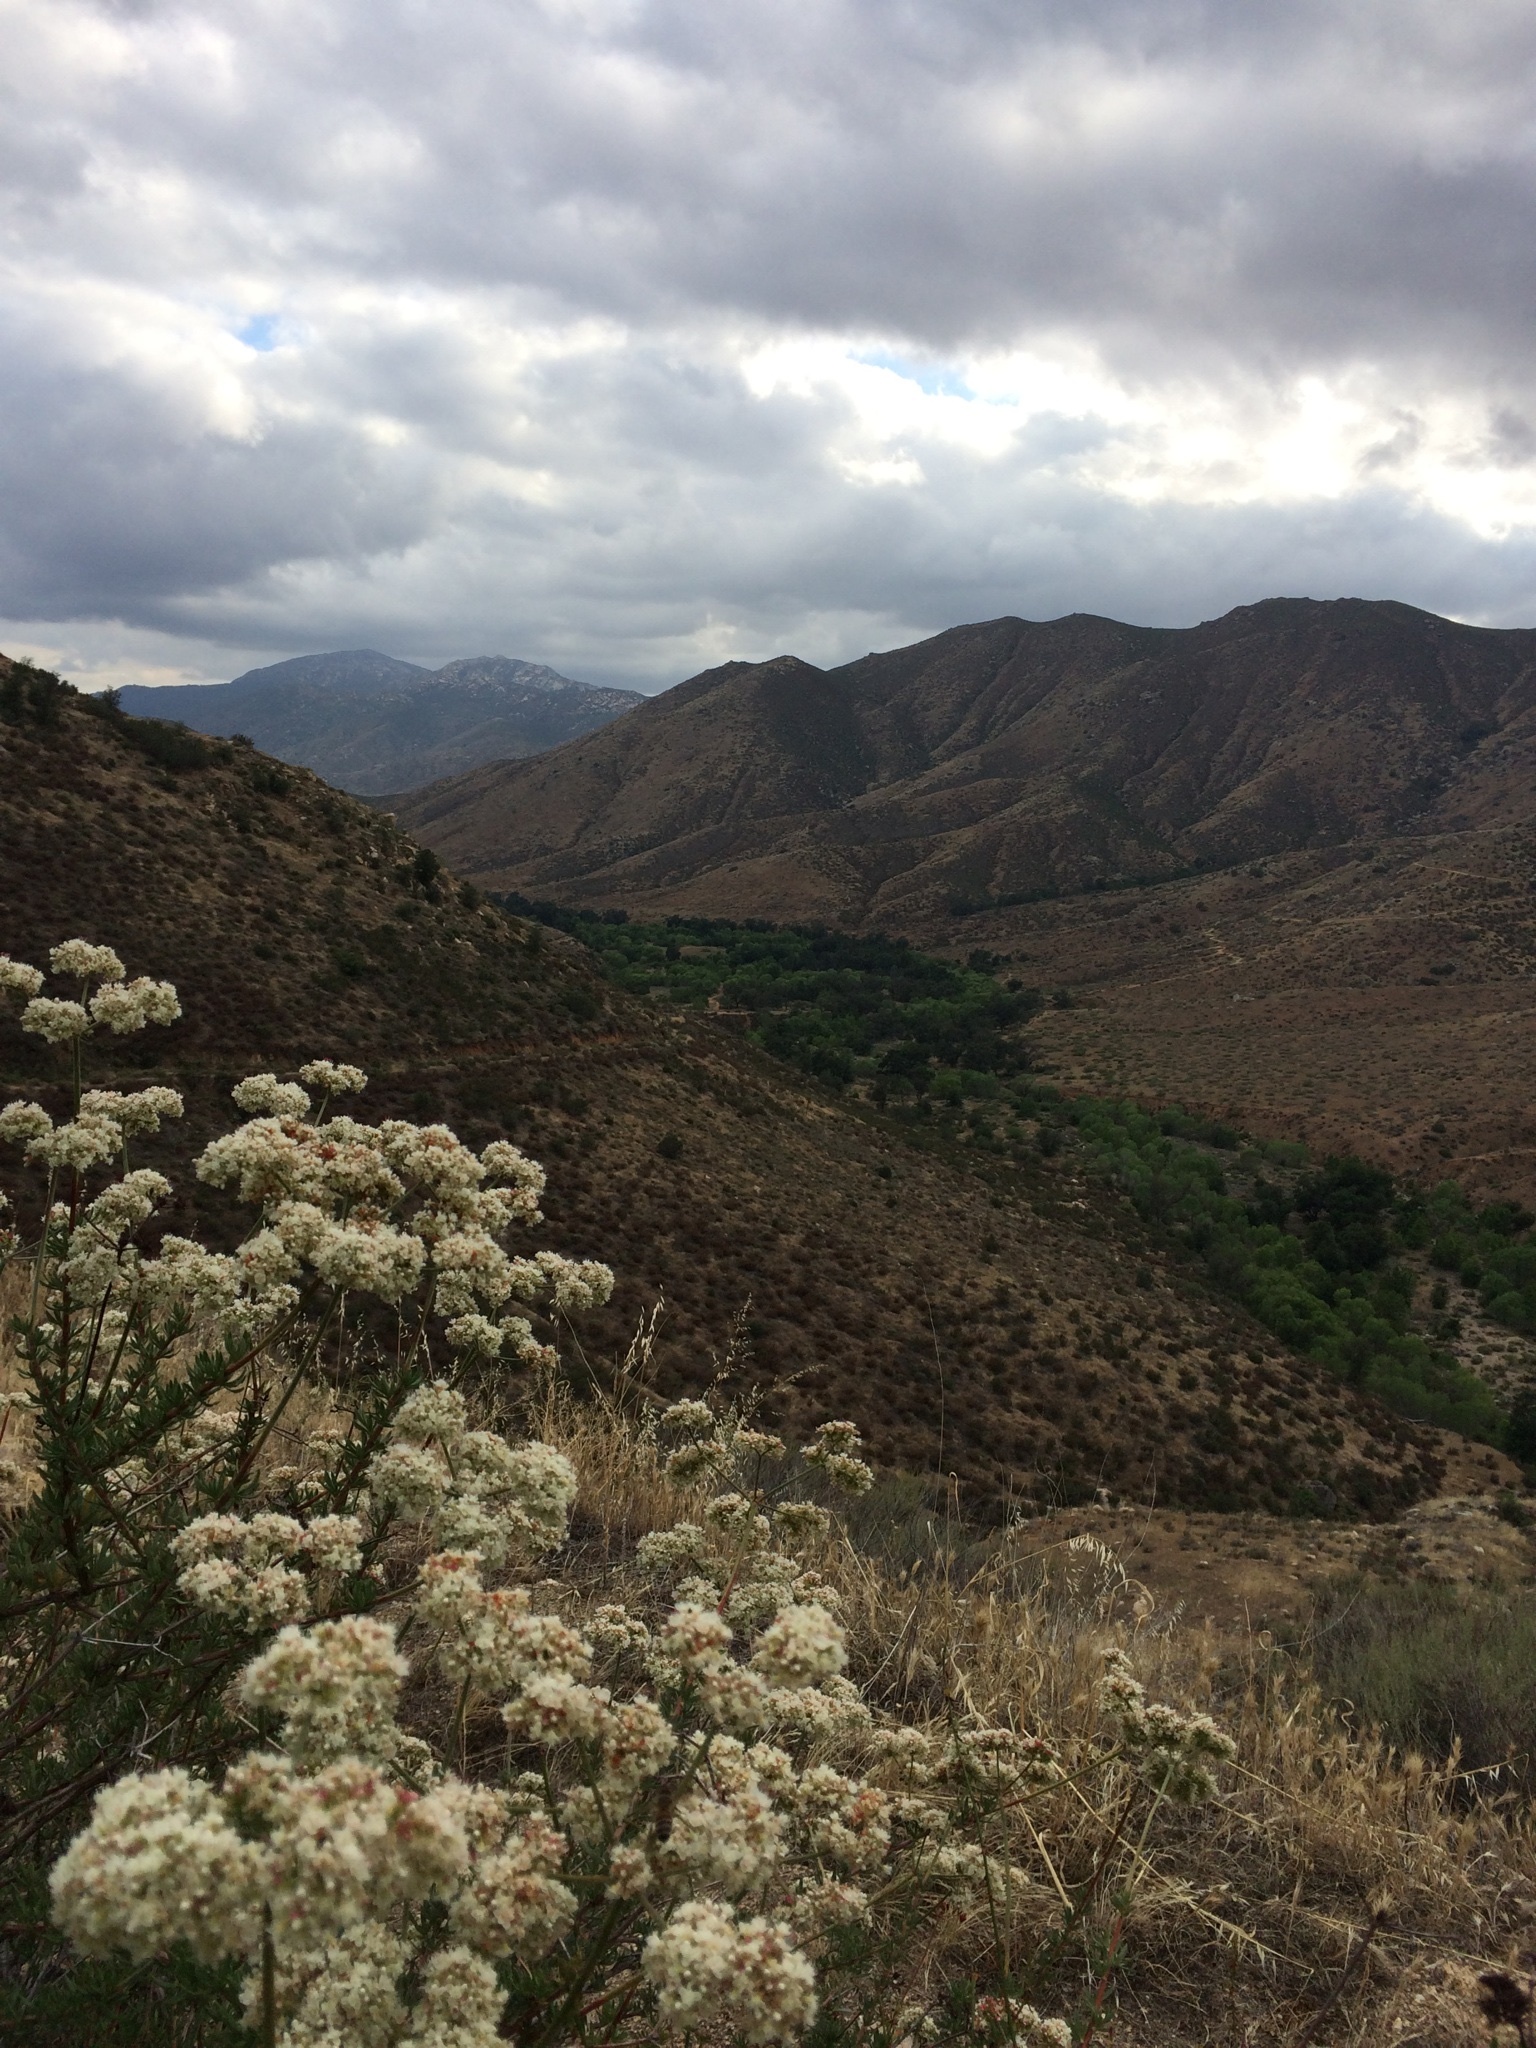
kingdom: Plantae
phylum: Tracheophyta
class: Magnoliopsida
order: Caryophyllales
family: Polygonaceae
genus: Eriogonum
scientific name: Eriogonum fasciculatum
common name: California wild buckwheat
